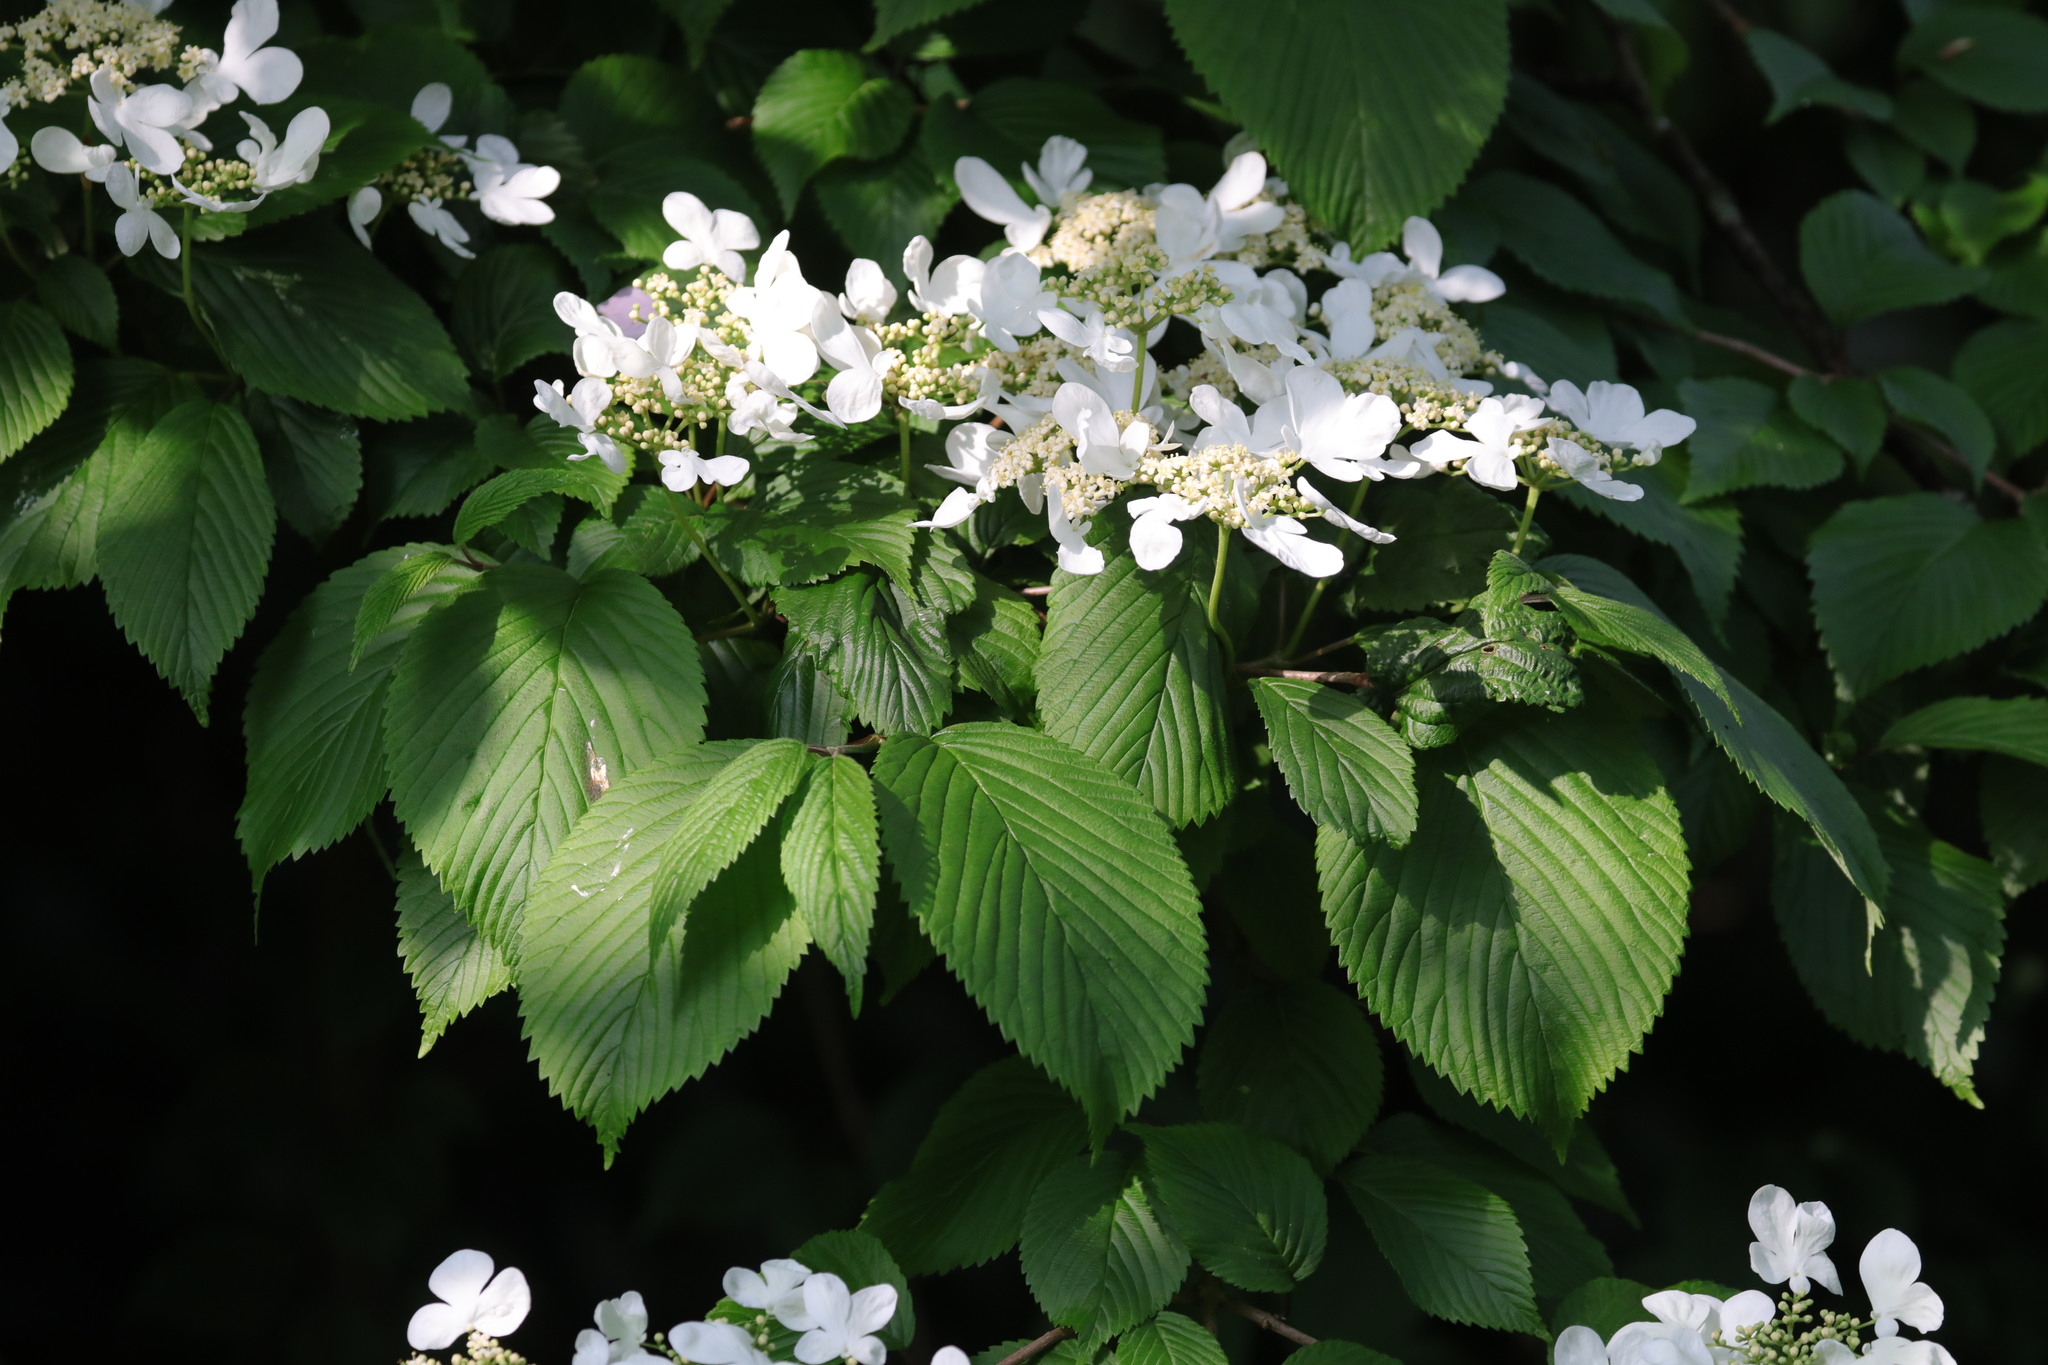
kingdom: Plantae
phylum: Tracheophyta
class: Magnoliopsida
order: Dipsacales
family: Viburnaceae
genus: Viburnum
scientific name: Viburnum plicatum
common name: Japanese snowball
